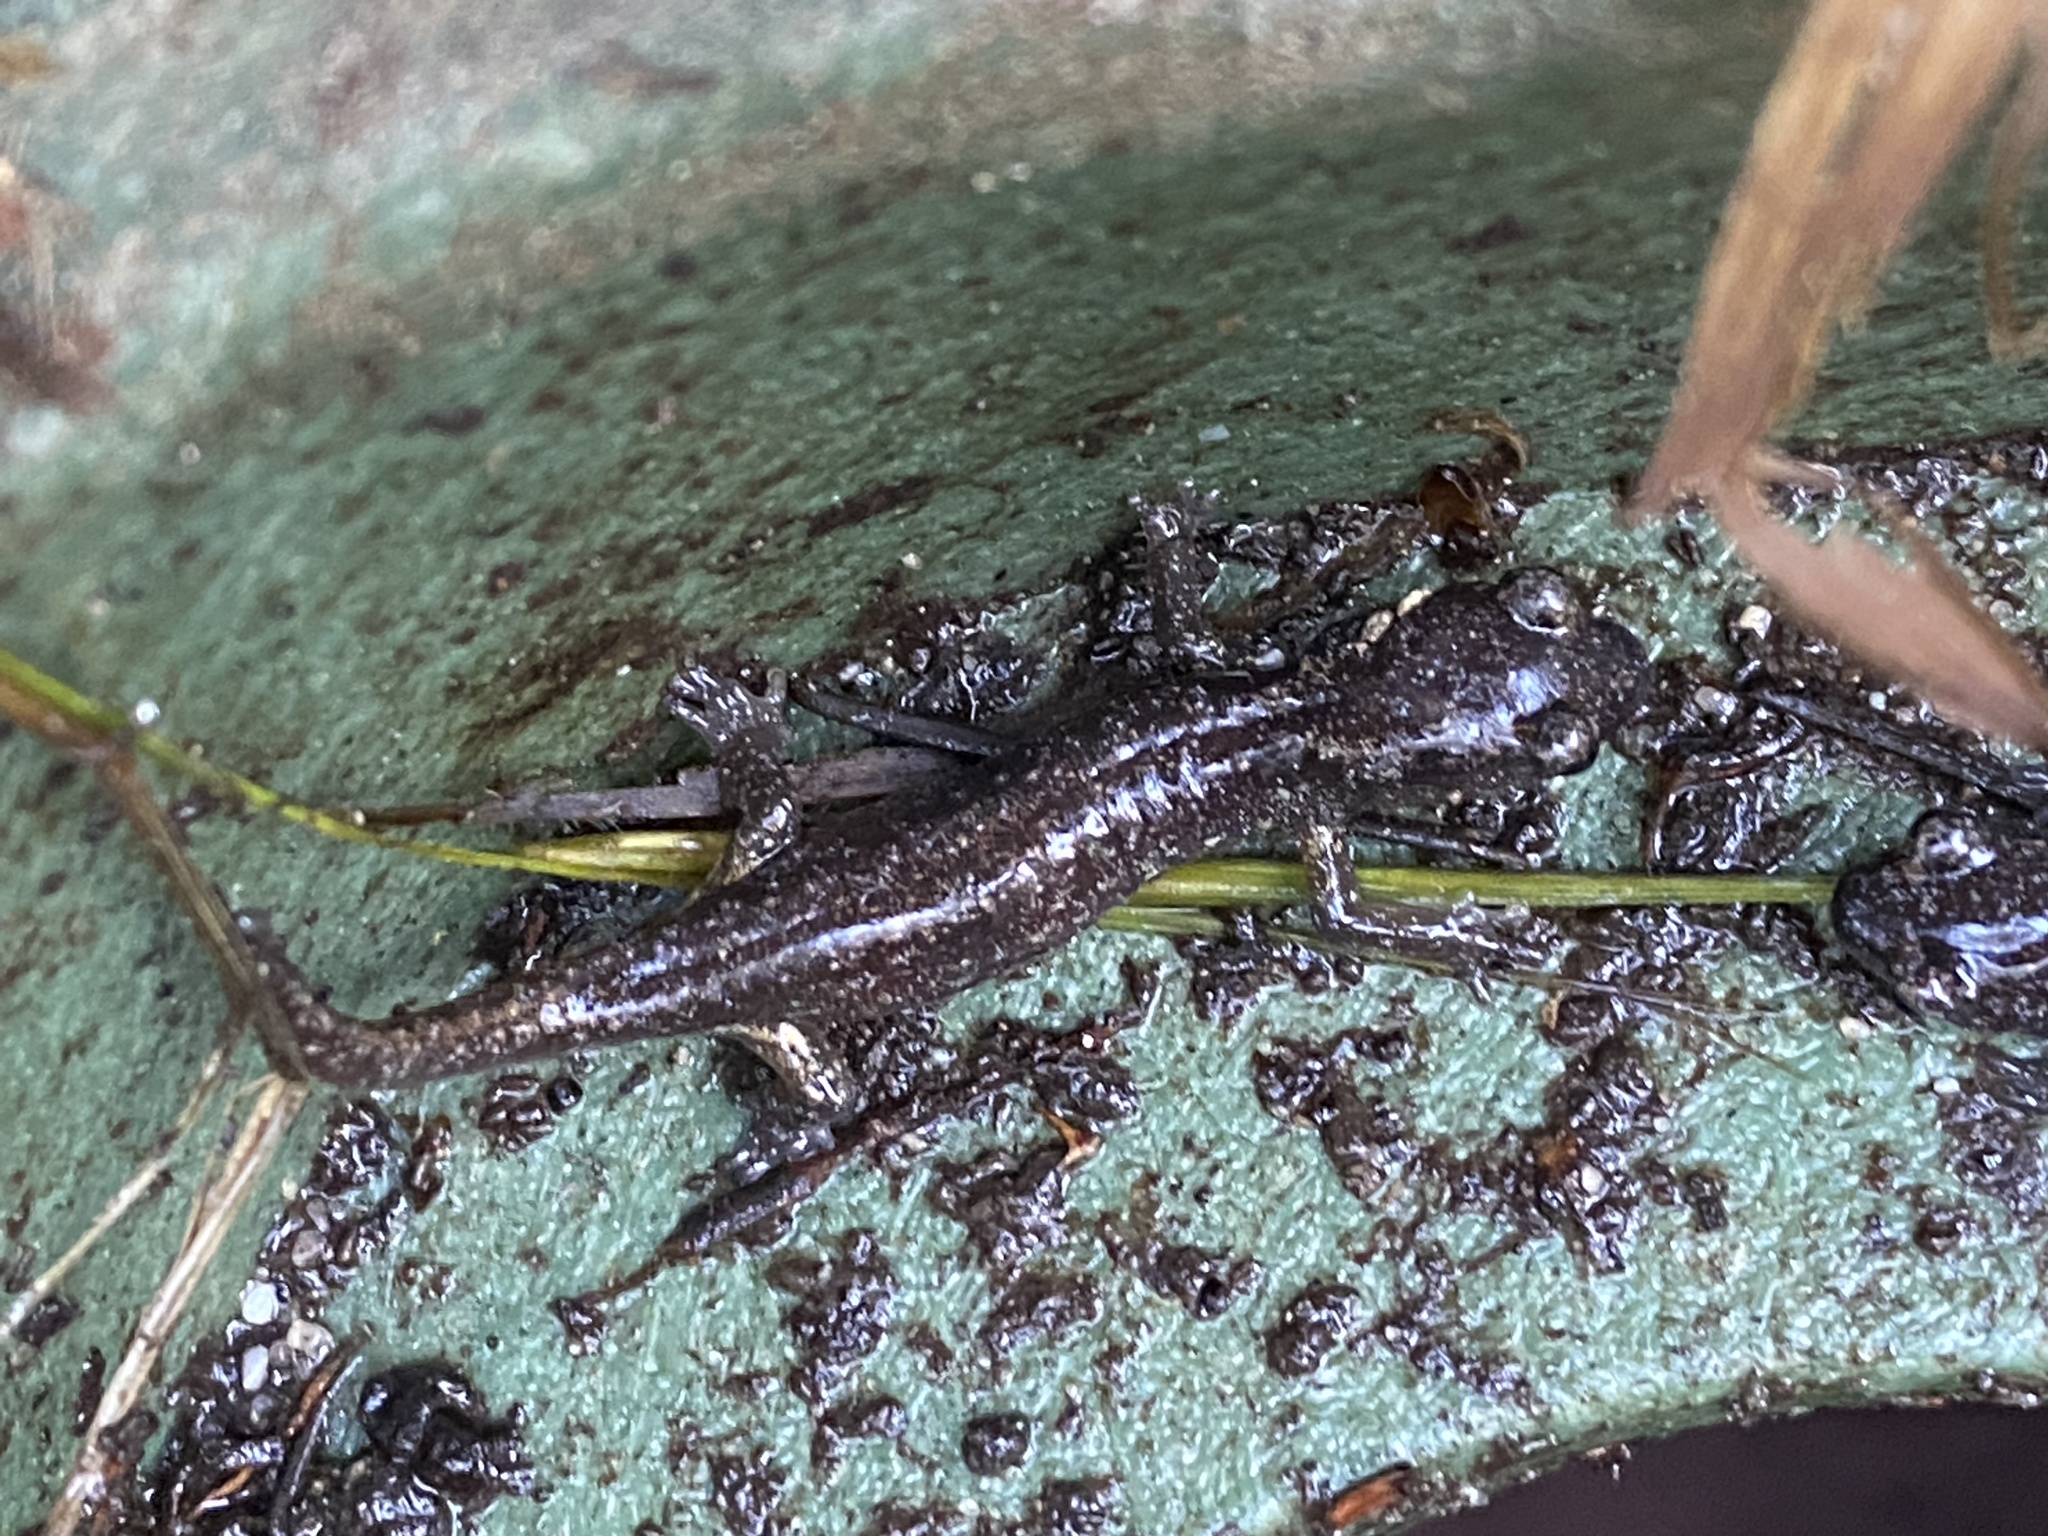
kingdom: Animalia
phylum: Chordata
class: Amphibia
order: Caudata
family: Plethodontidae
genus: Aneides
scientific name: Aneides lugubris
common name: Arboreal salamander
